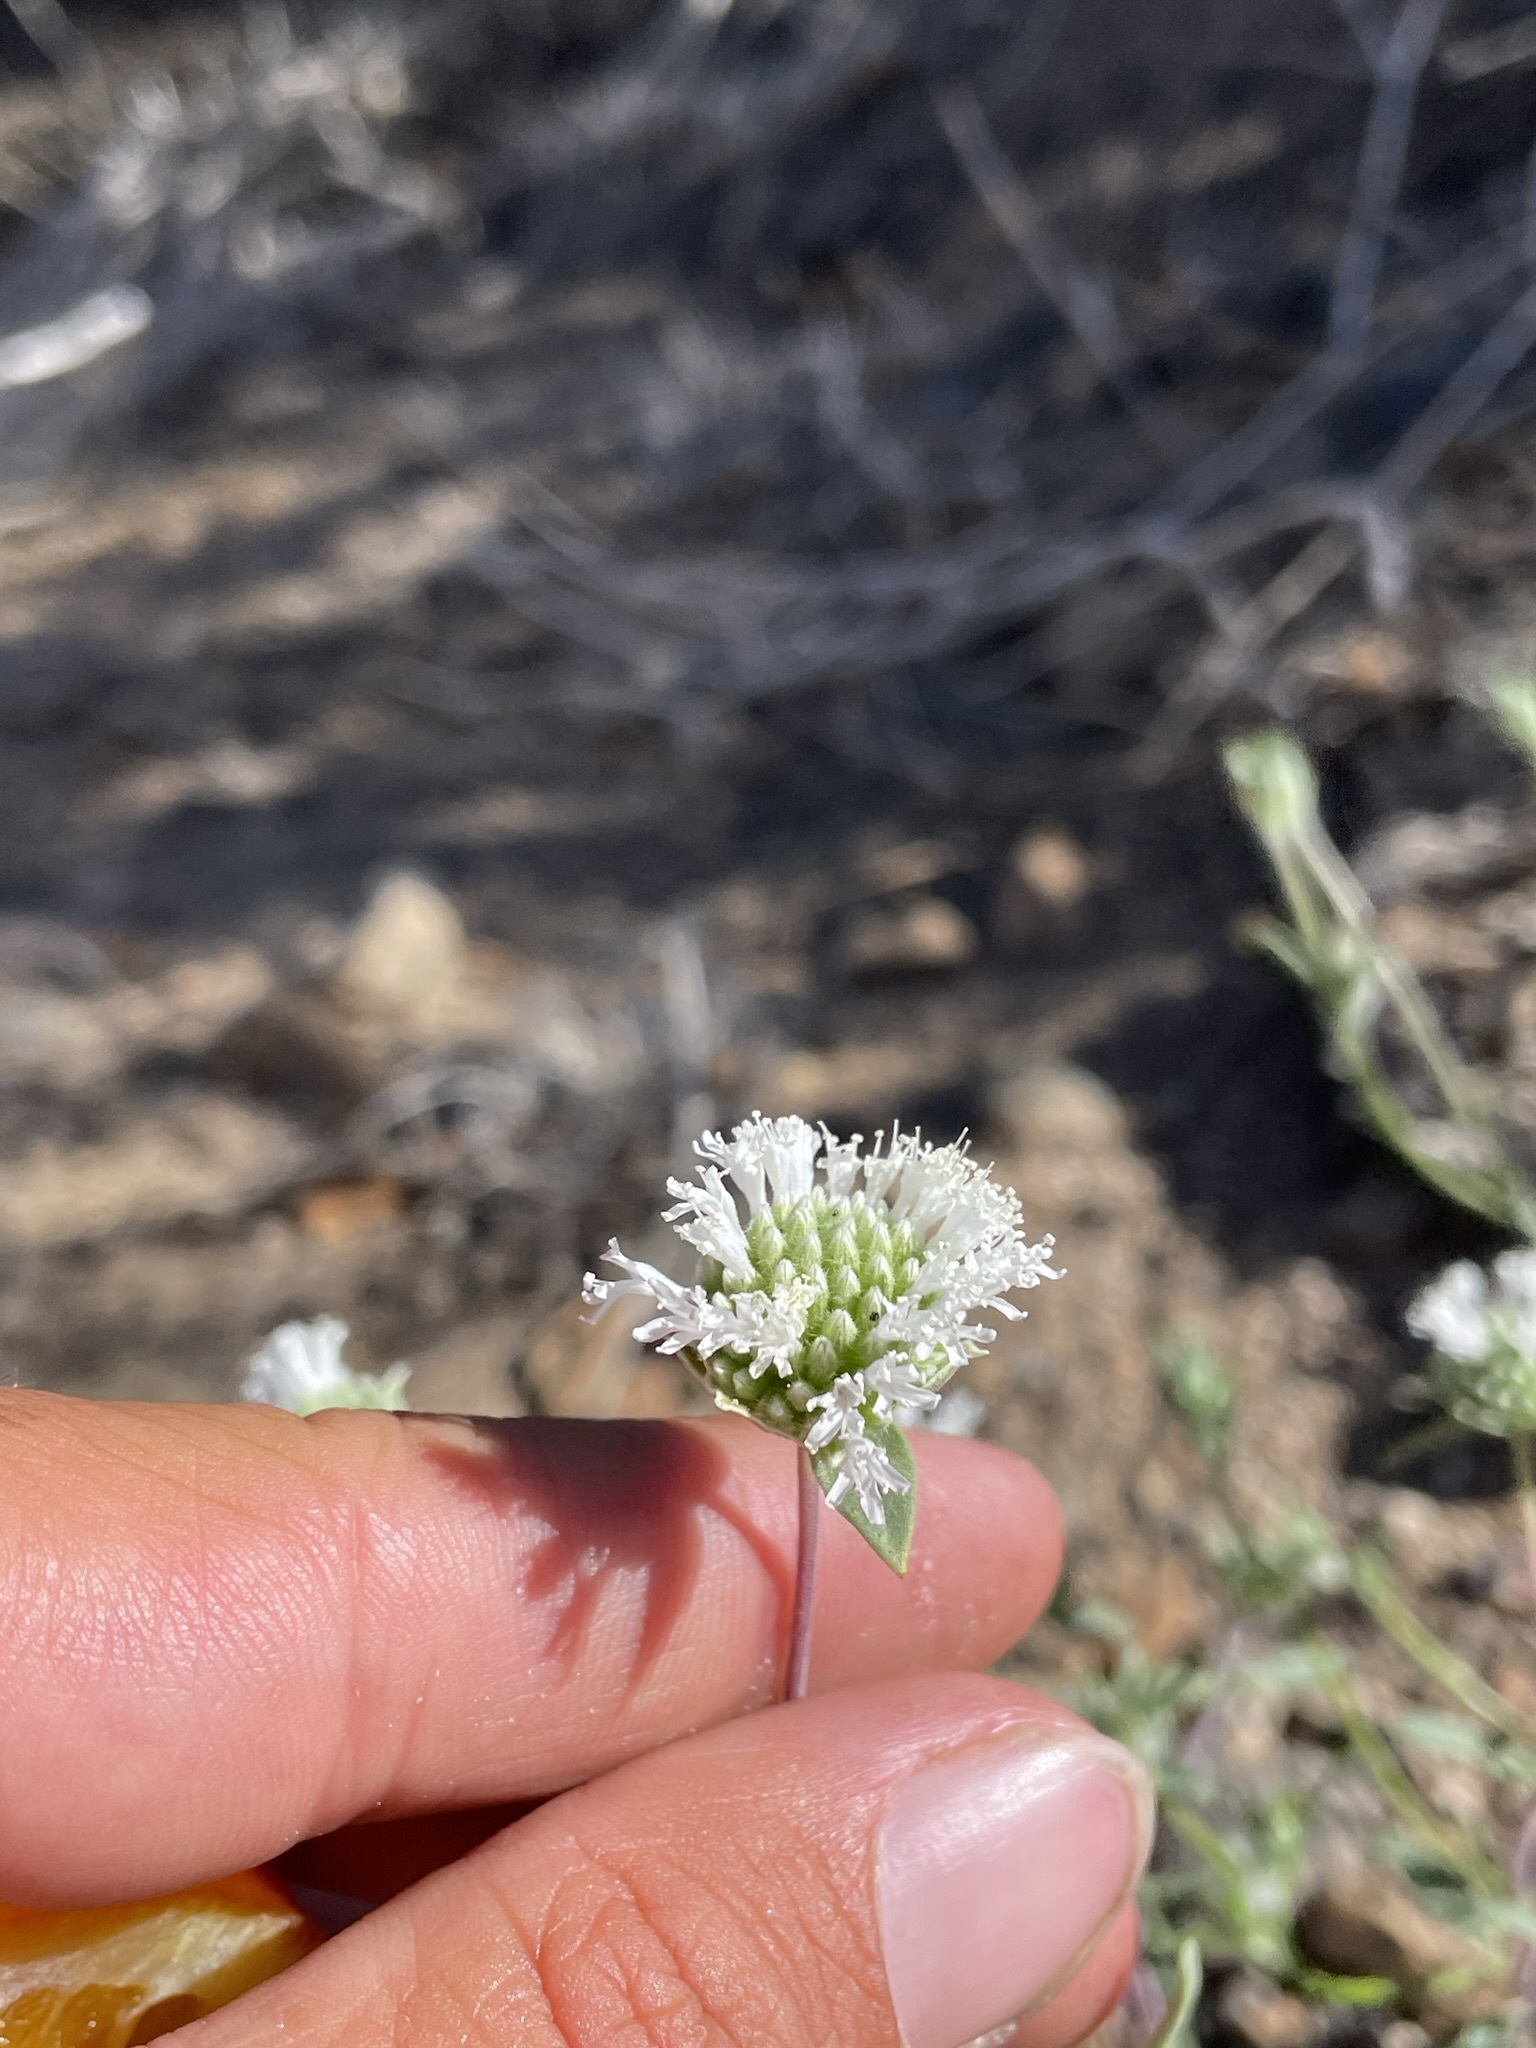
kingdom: Plantae
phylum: Tracheophyta
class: Magnoliopsida
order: Lamiales
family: Lamiaceae
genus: Monardella
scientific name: Monardella exilis
